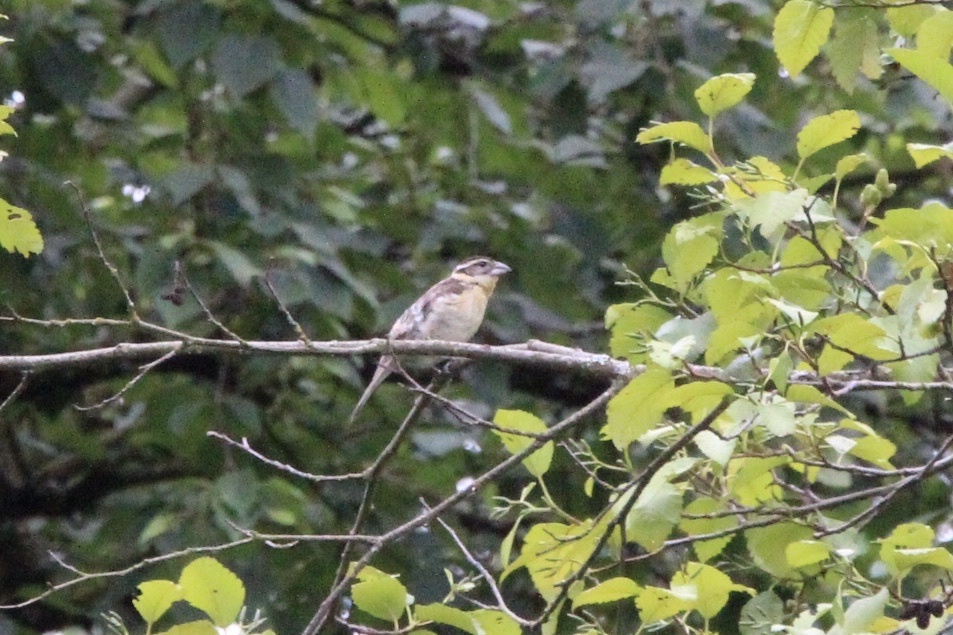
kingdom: Animalia
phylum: Chordata
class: Aves
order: Passeriformes
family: Cardinalidae
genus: Pheucticus
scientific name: Pheucticus melanocephalus
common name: Black-headed grosbeak
